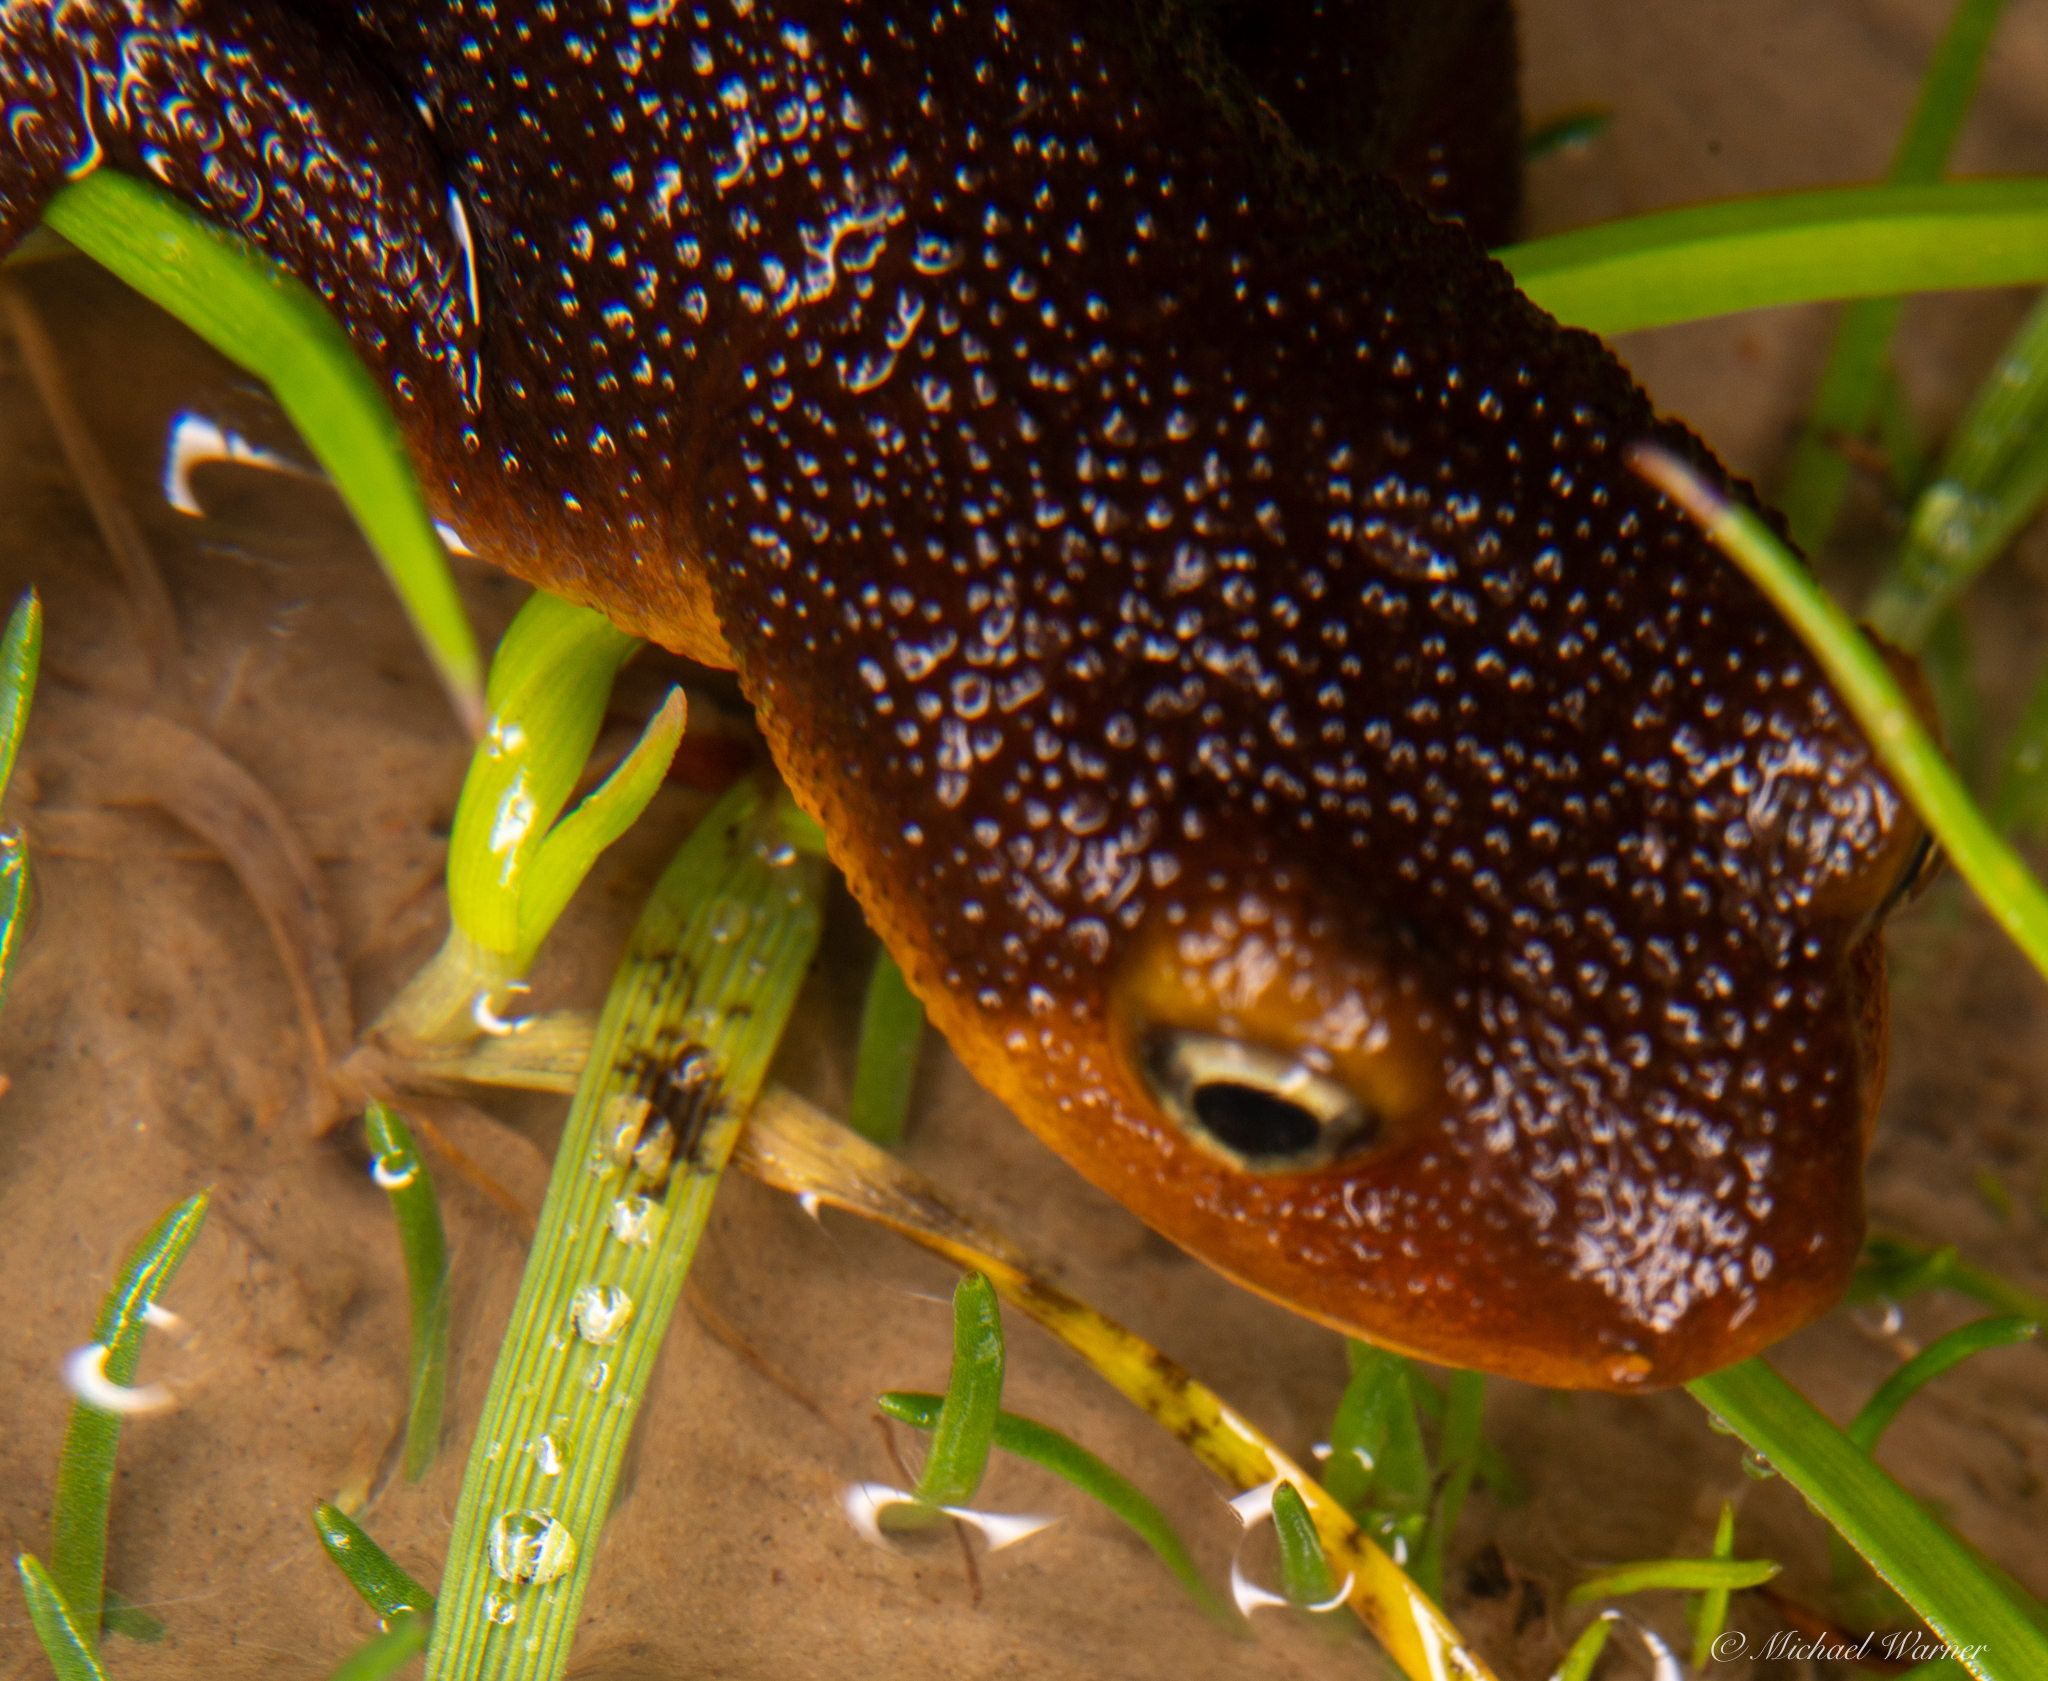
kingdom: Animalia
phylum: Chordata
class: Amphibia
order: Caudata
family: Salamandridae
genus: Taricha
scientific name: Taricha torosa
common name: California newt
